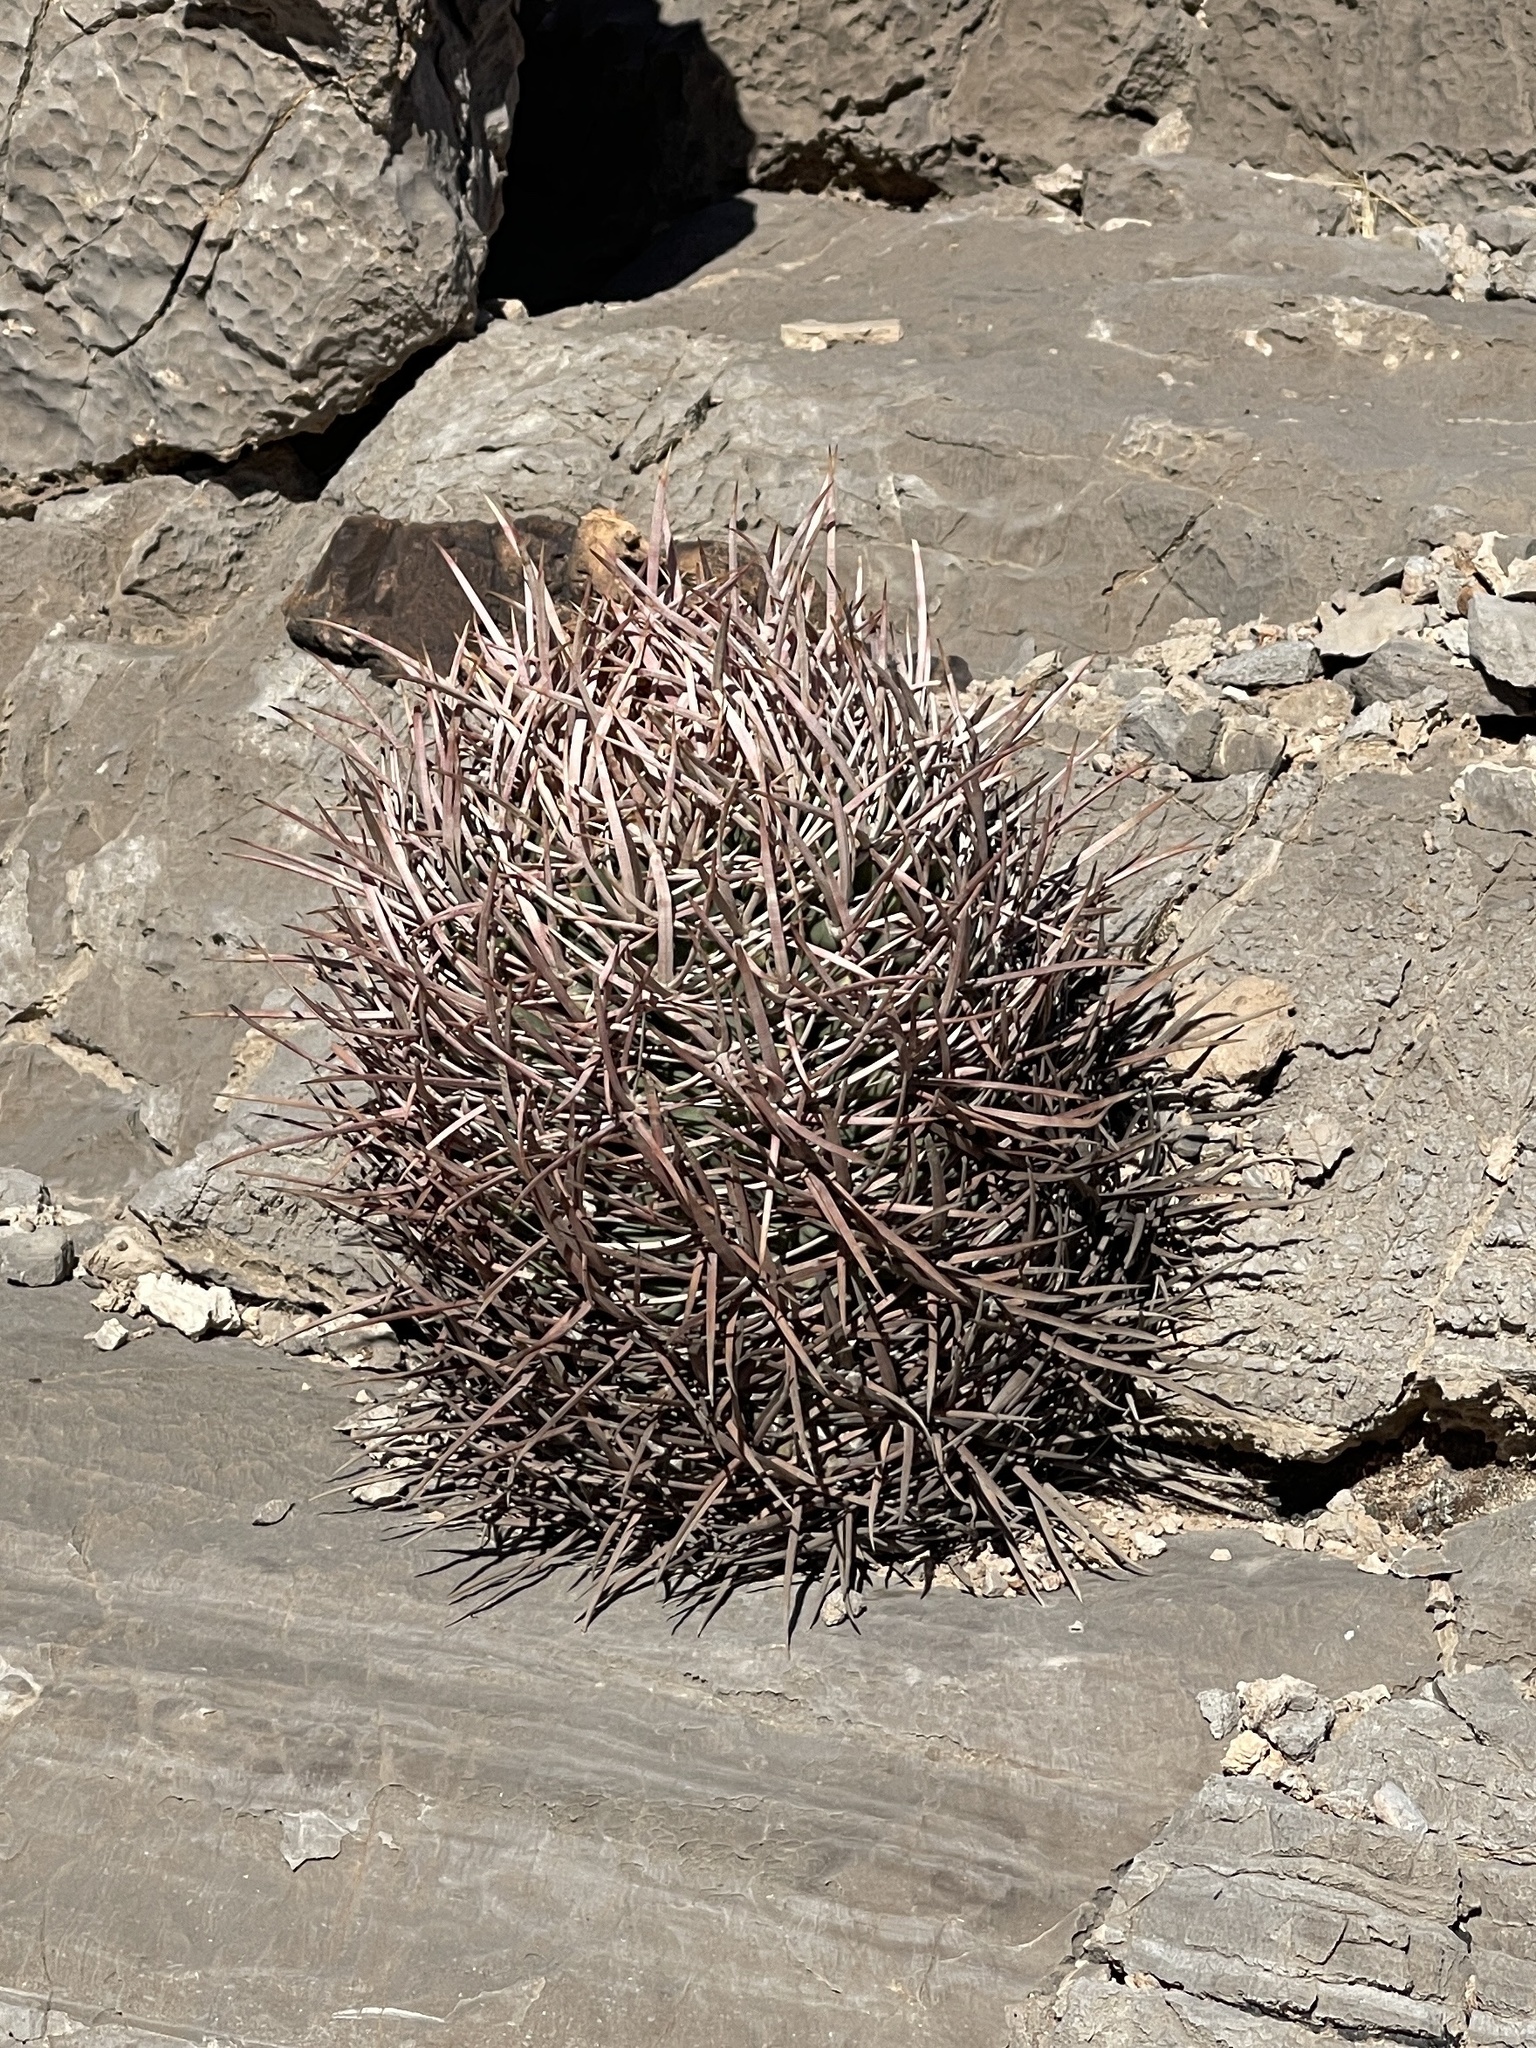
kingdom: Plantae
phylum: Tracheophyta
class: Magnoliopsida
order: Caryophyllales
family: Cactaceae
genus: Echinocactus
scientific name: Echinocactus polycephalus
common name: Cottontop cactus
